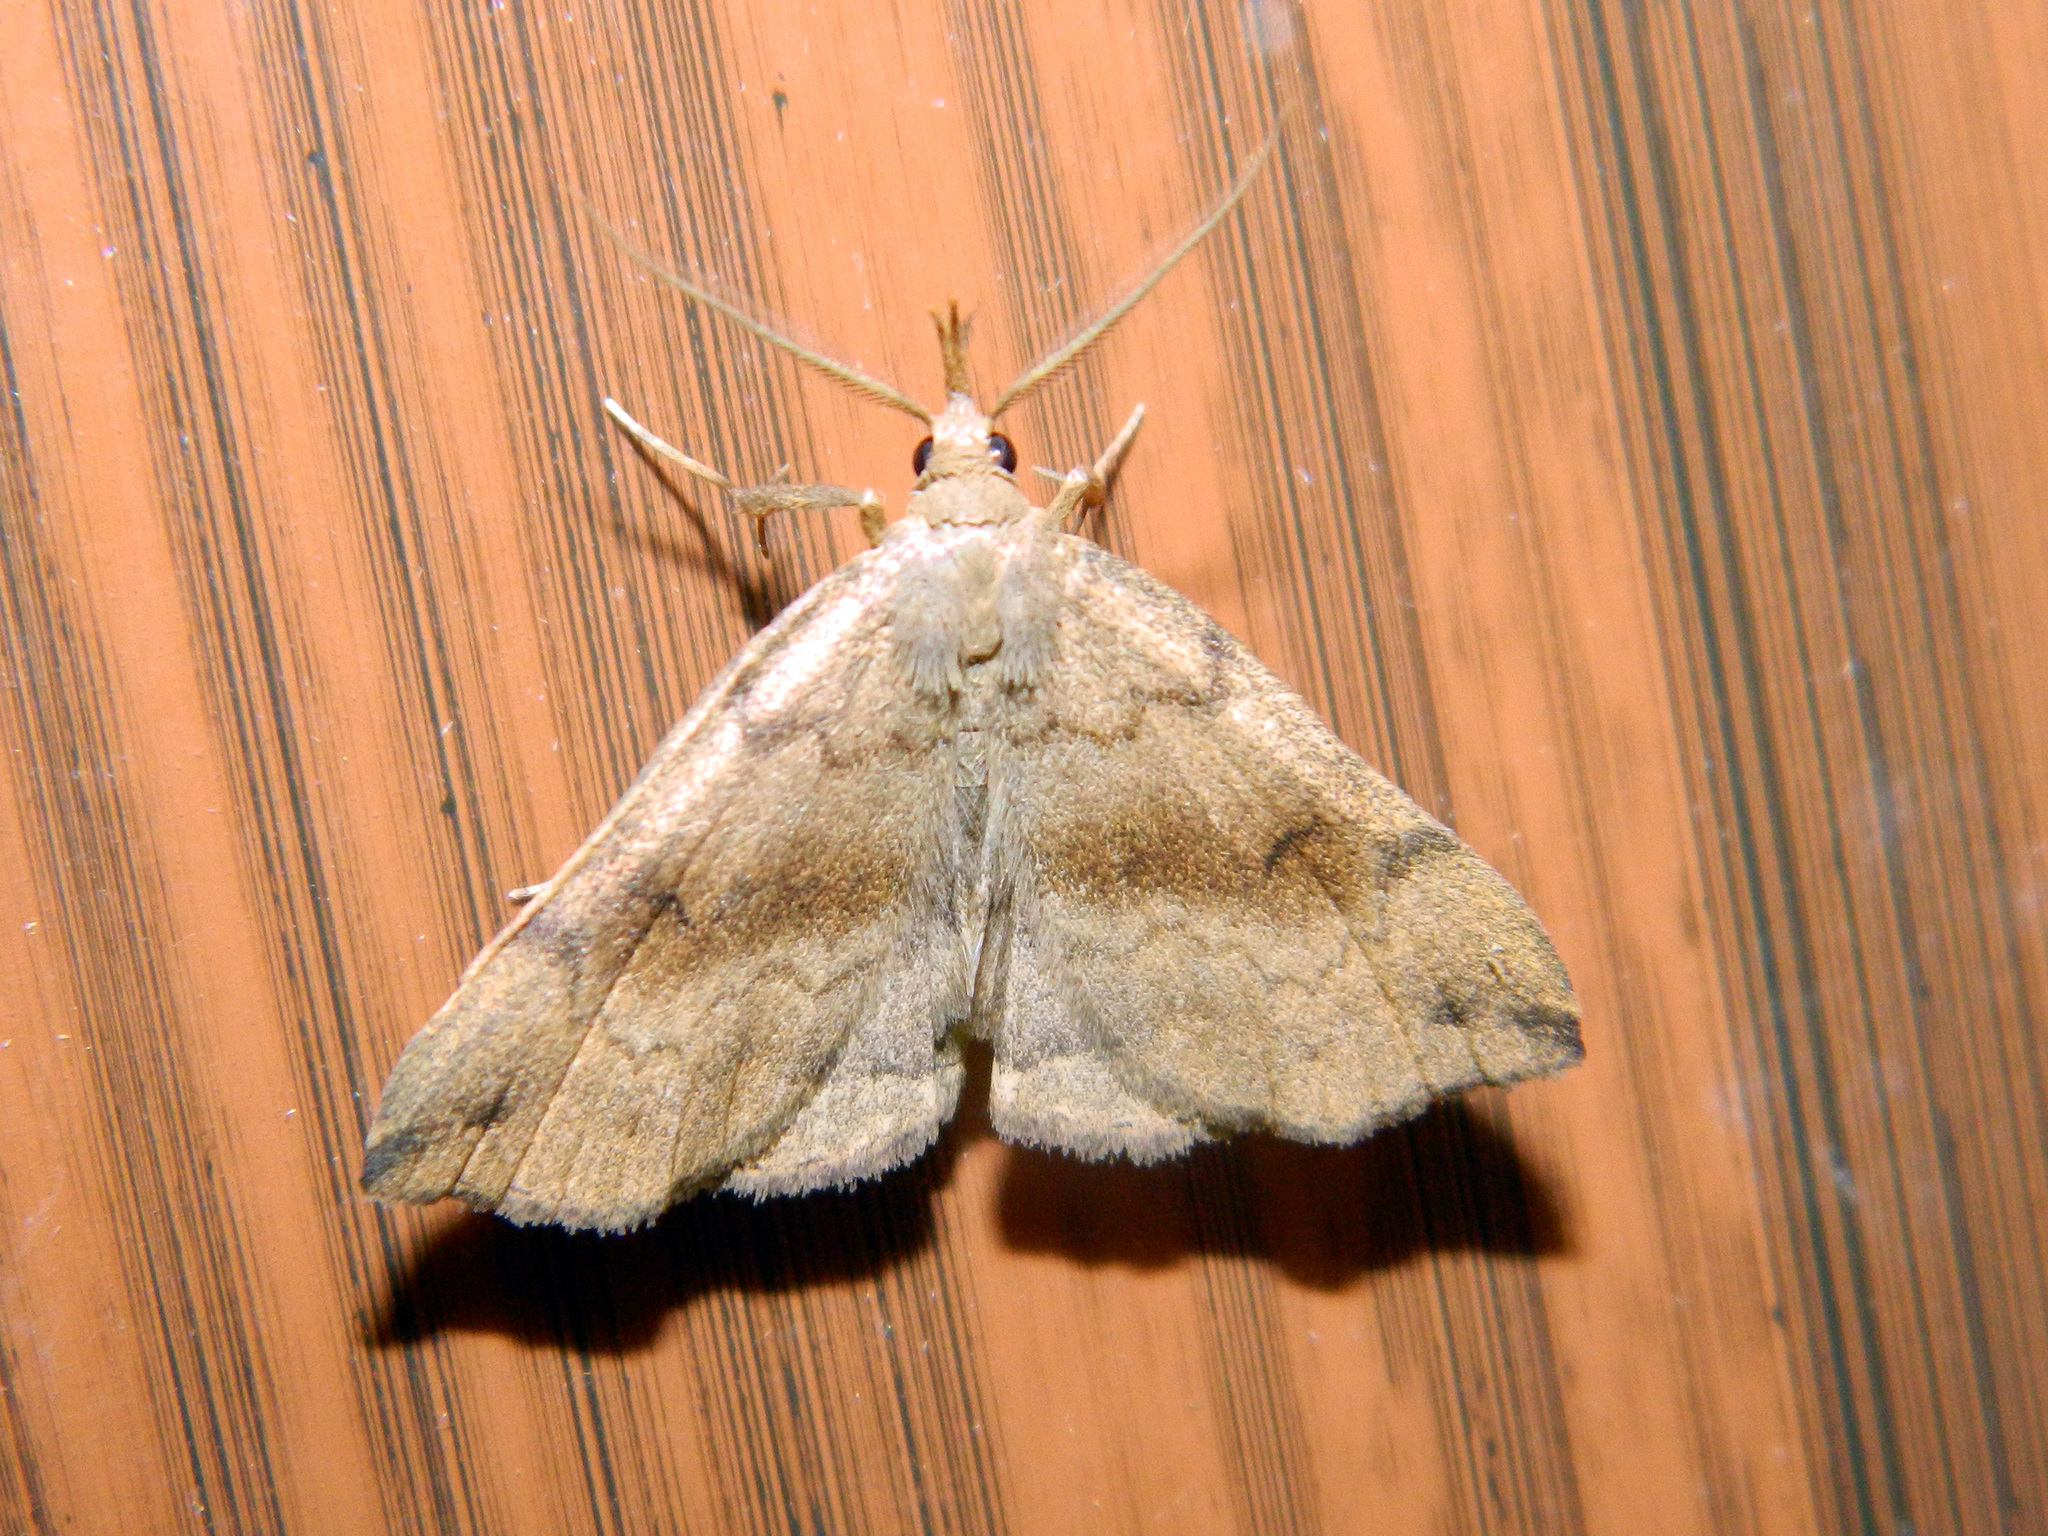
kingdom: Animalia
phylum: Arthropoda
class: Insecta
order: Lepidoptera
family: Erebidae
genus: Phalaenostola
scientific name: Phalaenostola eumelusalis
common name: Dark phalaenostola moth
